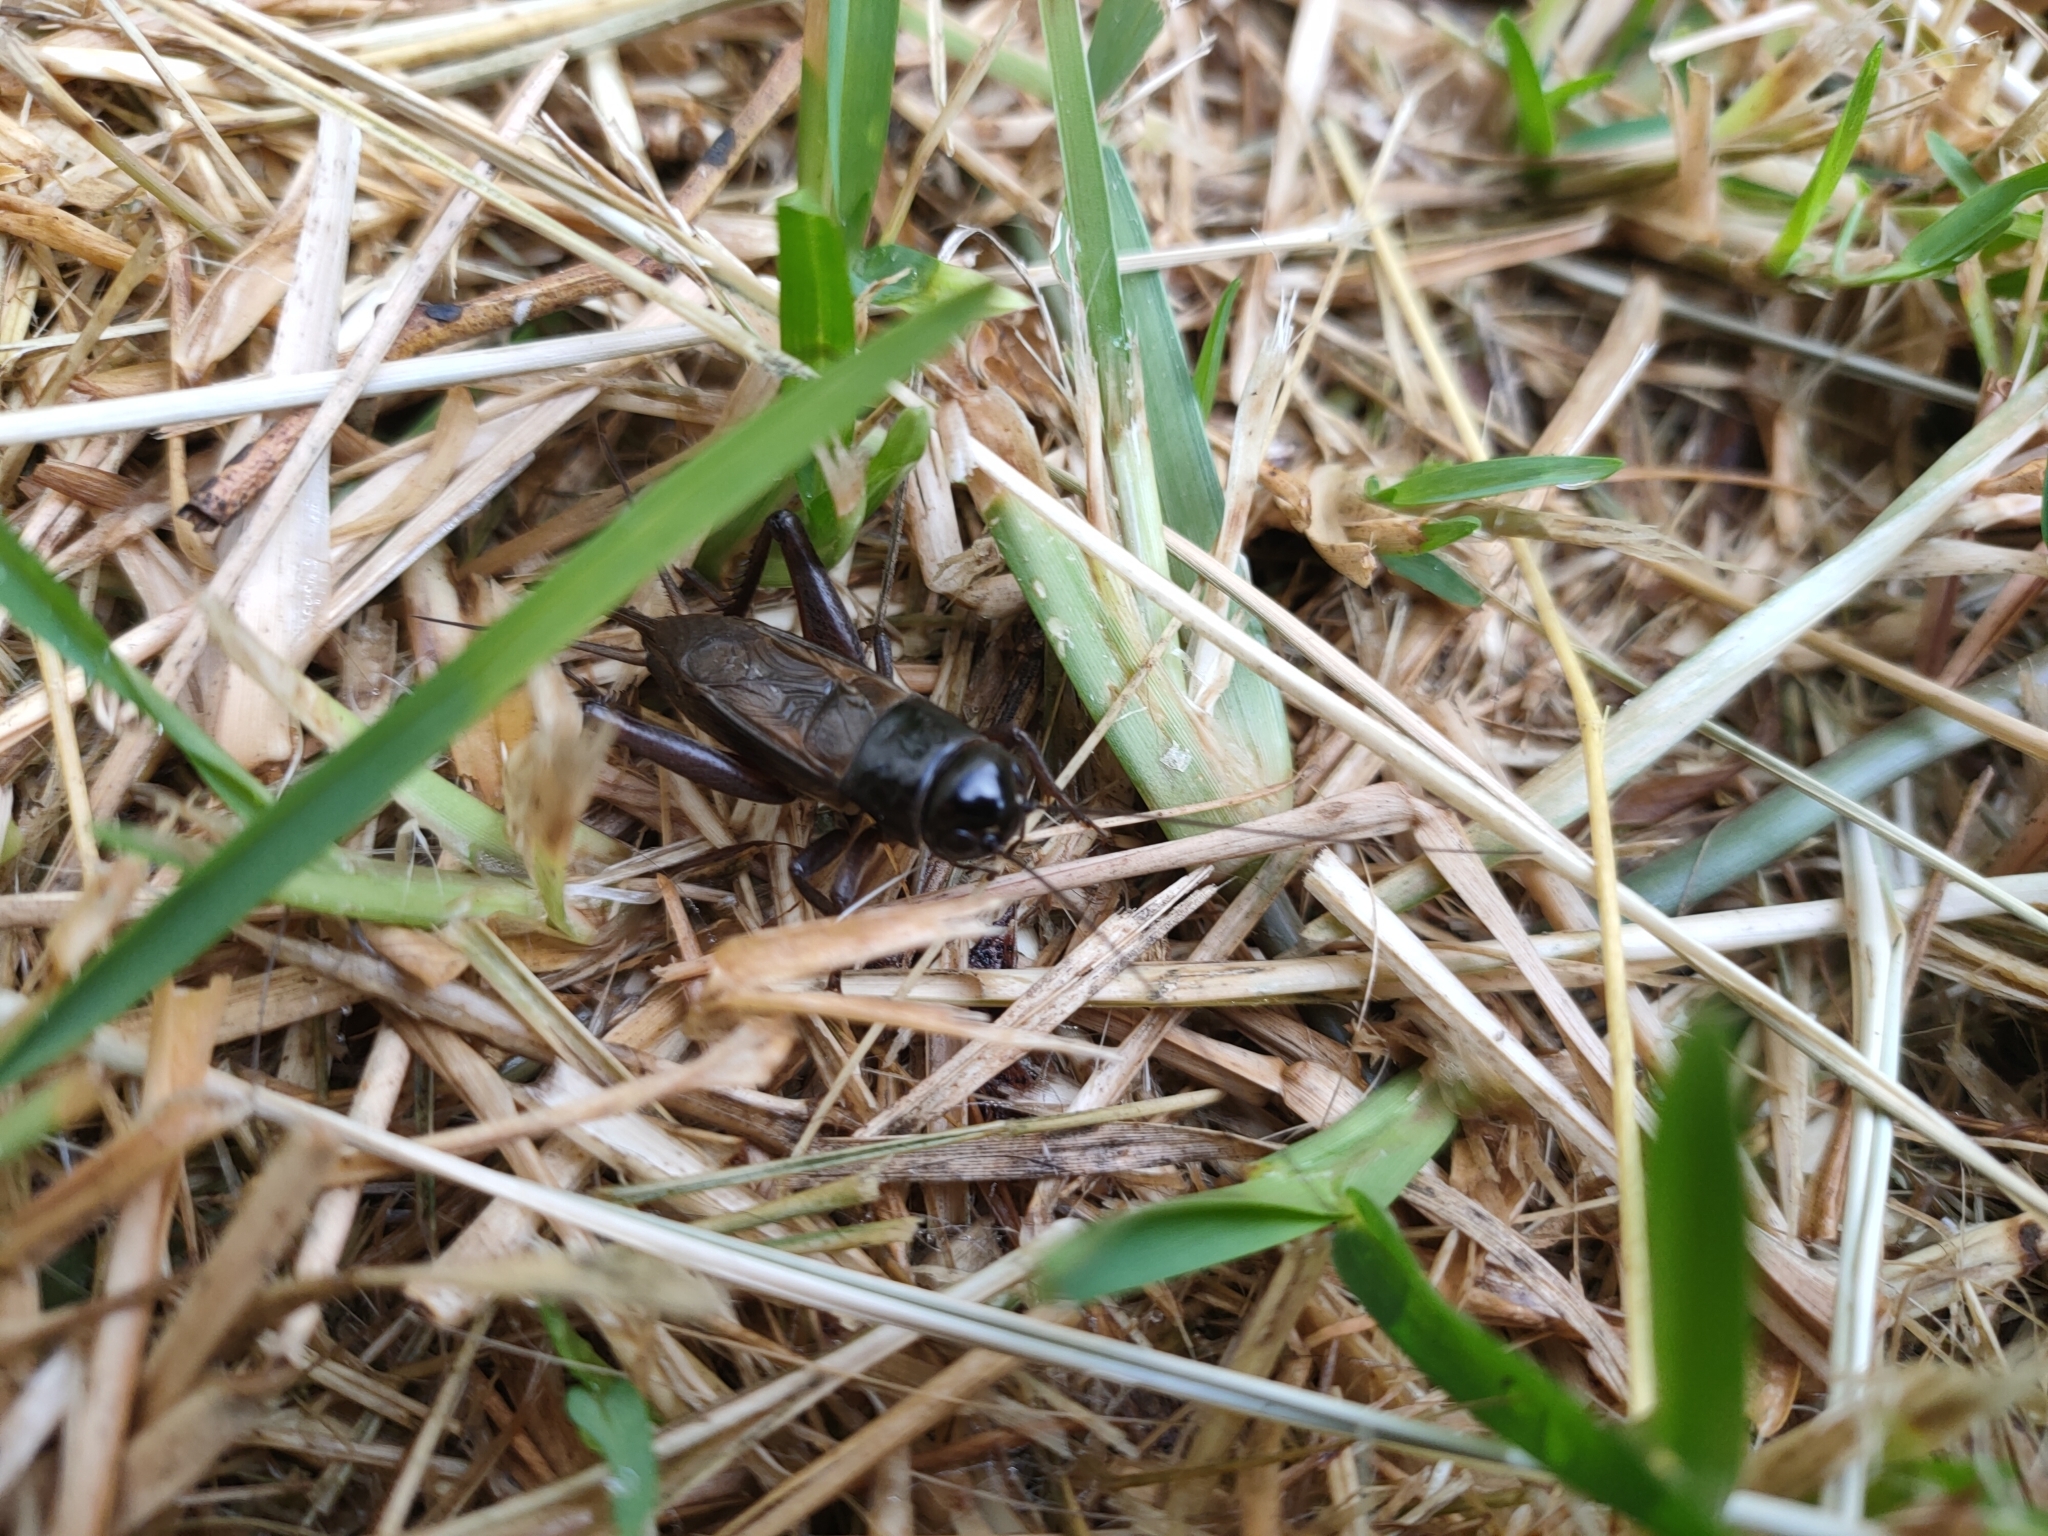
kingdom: Animalia
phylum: Arthropoda
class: Insecta
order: Orthoptera
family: Gryllidae
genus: Teleogryllus
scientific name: Teleogryllus commodus
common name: Black field cricket
